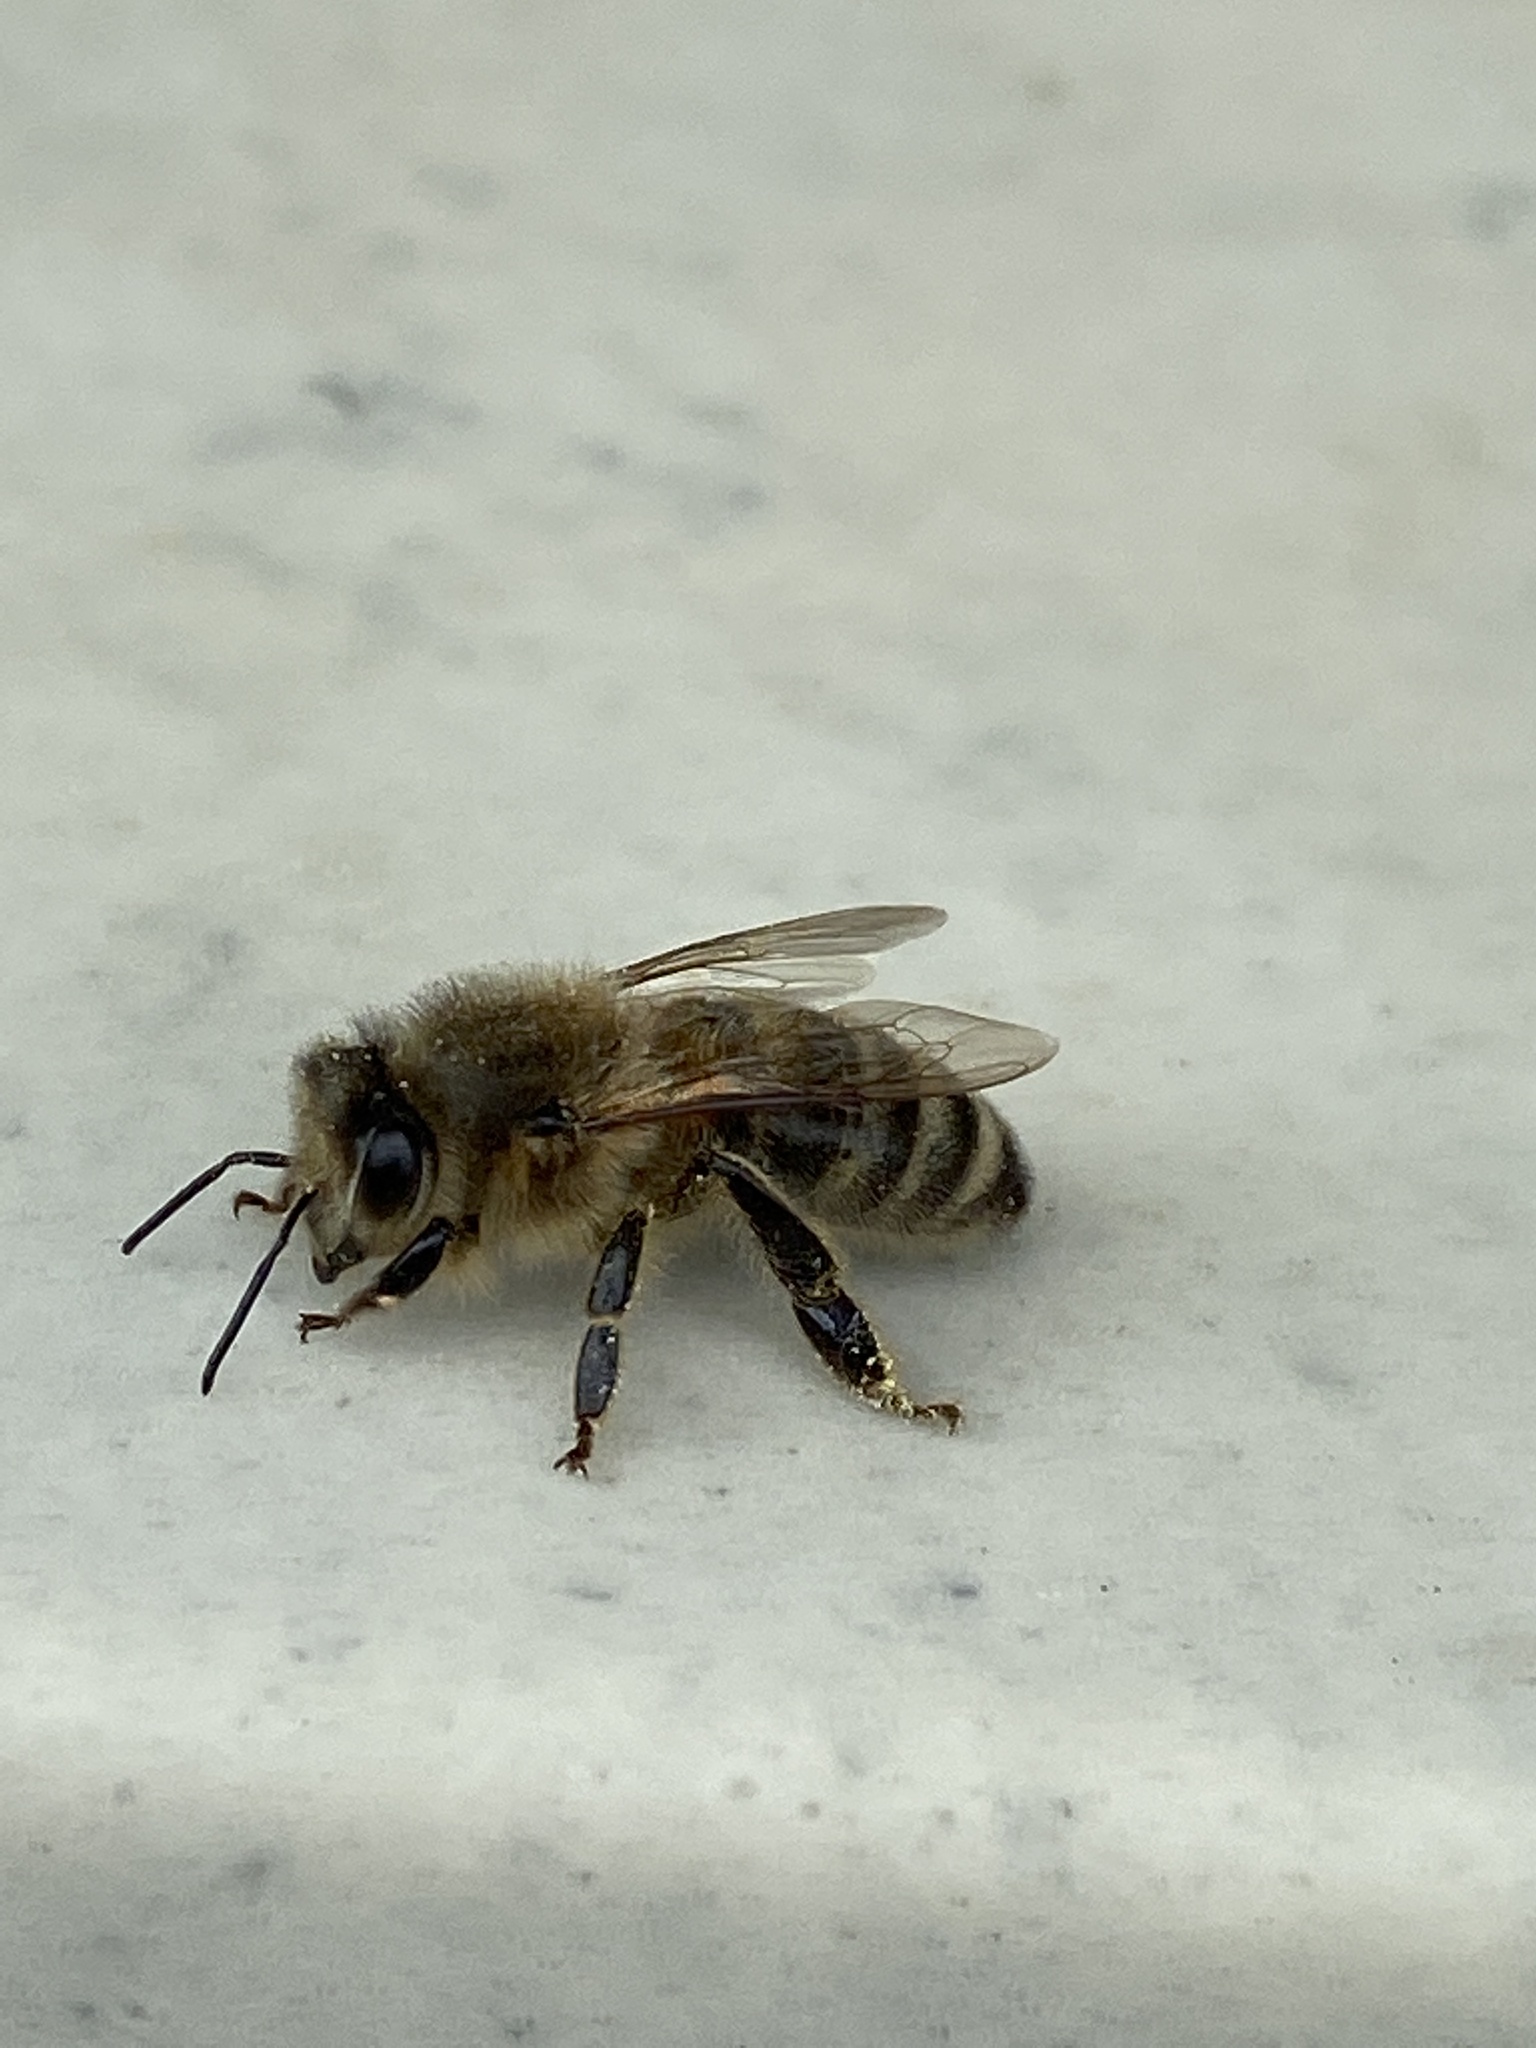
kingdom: Animalia
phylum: Arthropoda
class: Insecta
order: Hymenoptera
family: Apidae
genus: Apis
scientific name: Apis mellifera
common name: Honey bee
